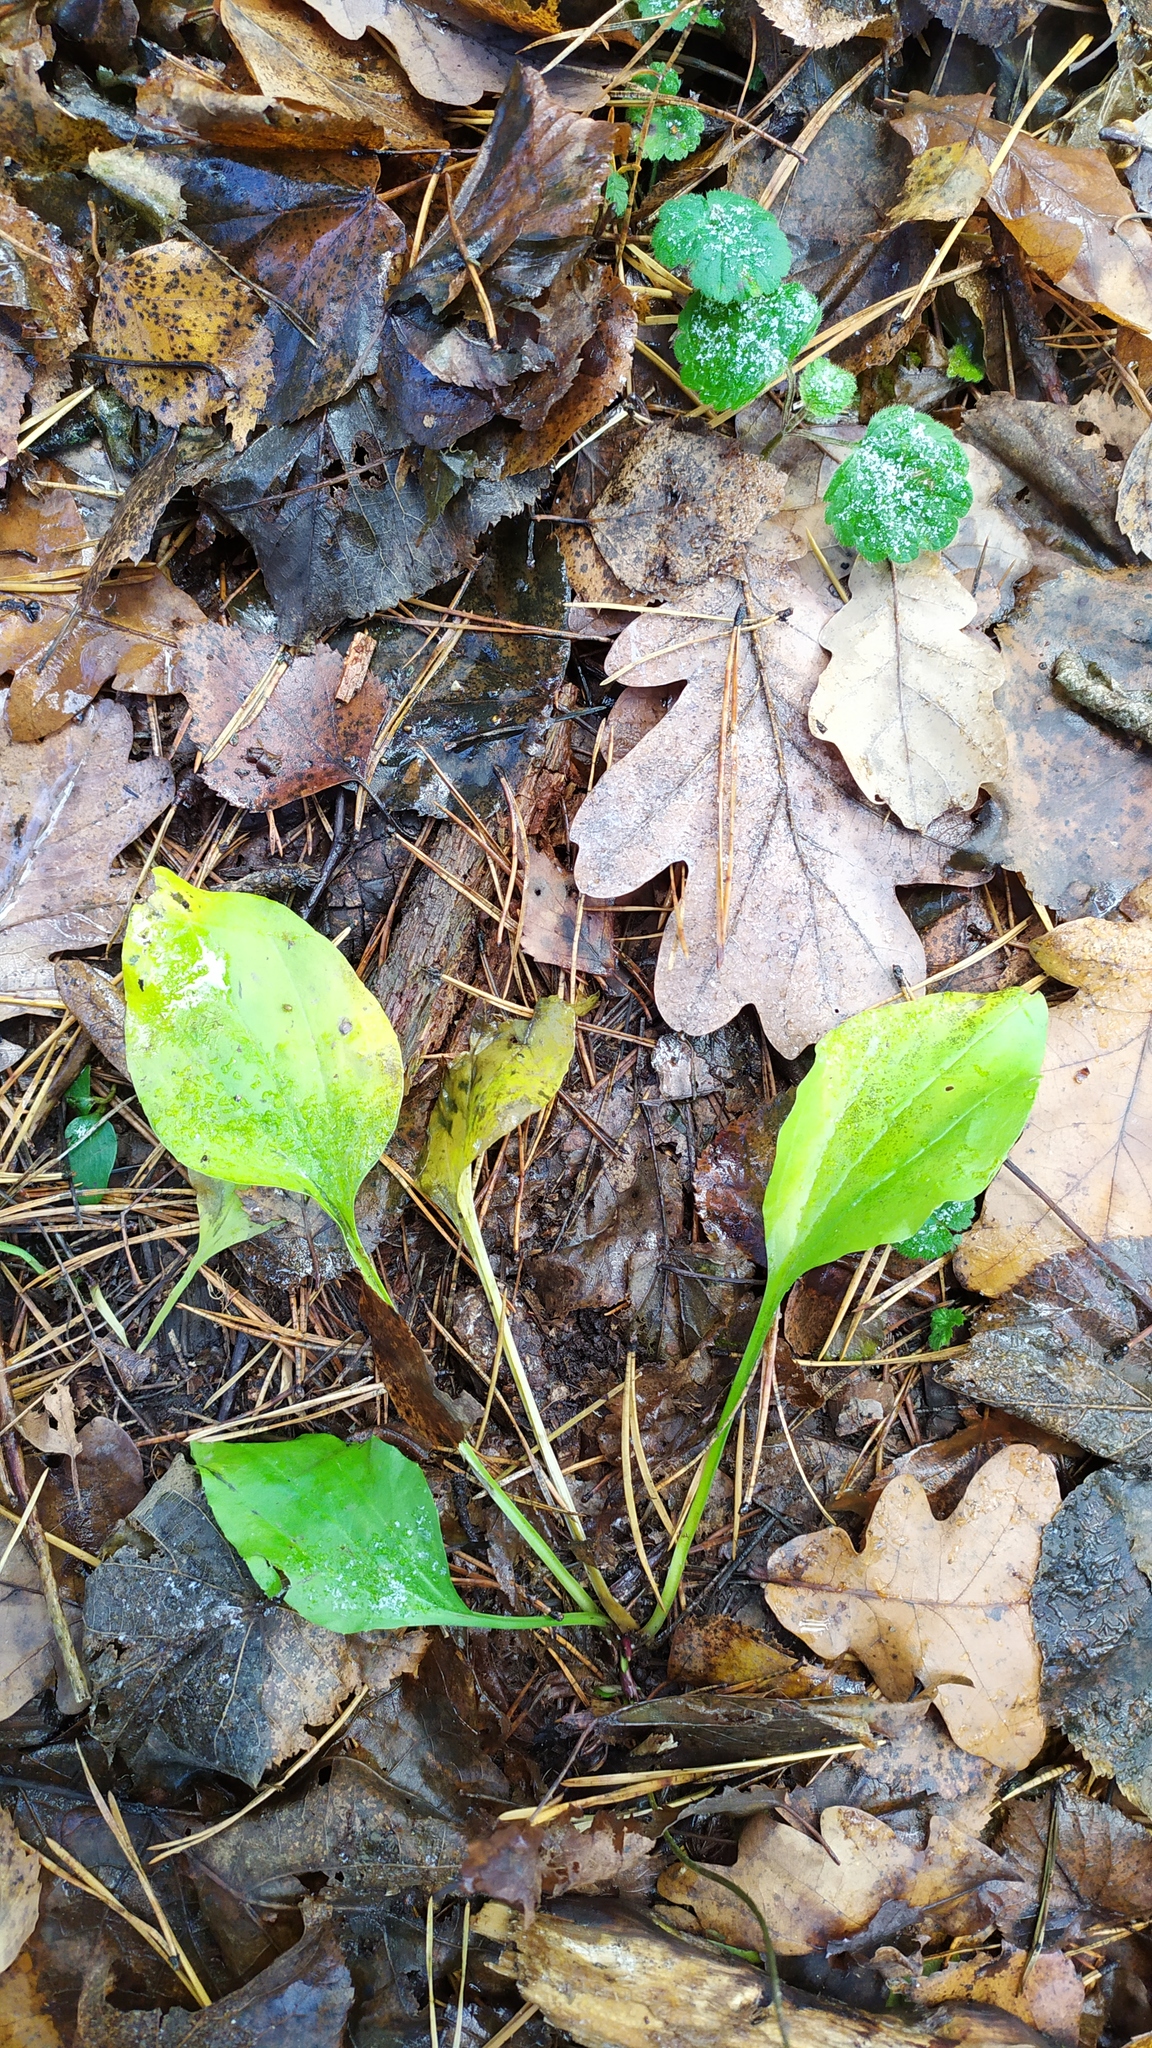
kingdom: Plantae
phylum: Tracheophyta
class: Magnoliopsida
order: Lamiales
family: Plantaginaceae
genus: Plantago
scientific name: Plantago major
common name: Common plantain
